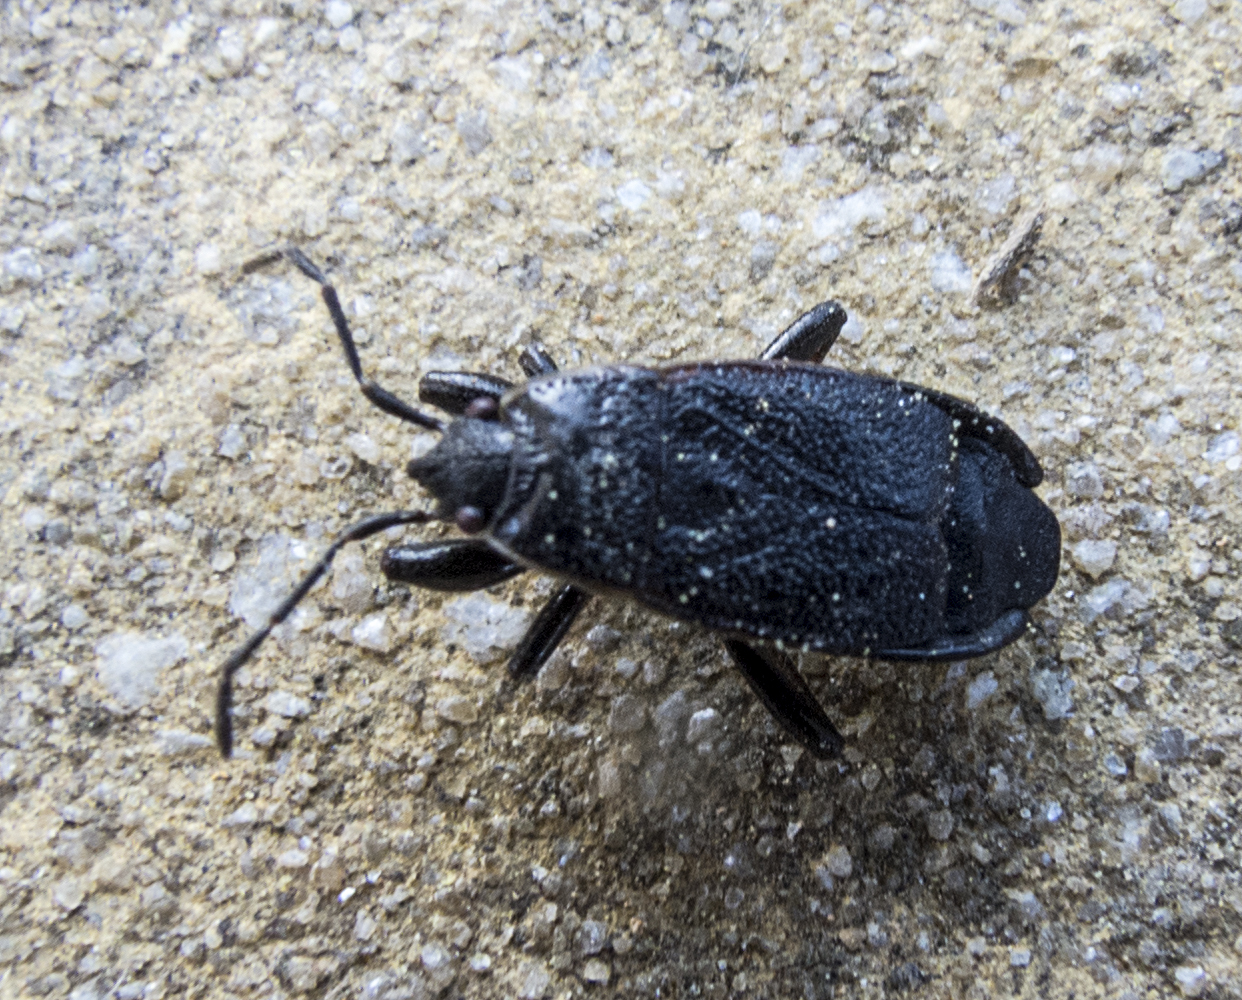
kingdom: Animalia
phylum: Arthropoda
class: Insecta
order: Hemiptera
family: Pyrrhocoridae
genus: Pyrrhocoris
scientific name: Pyrrhocoris marginatus
